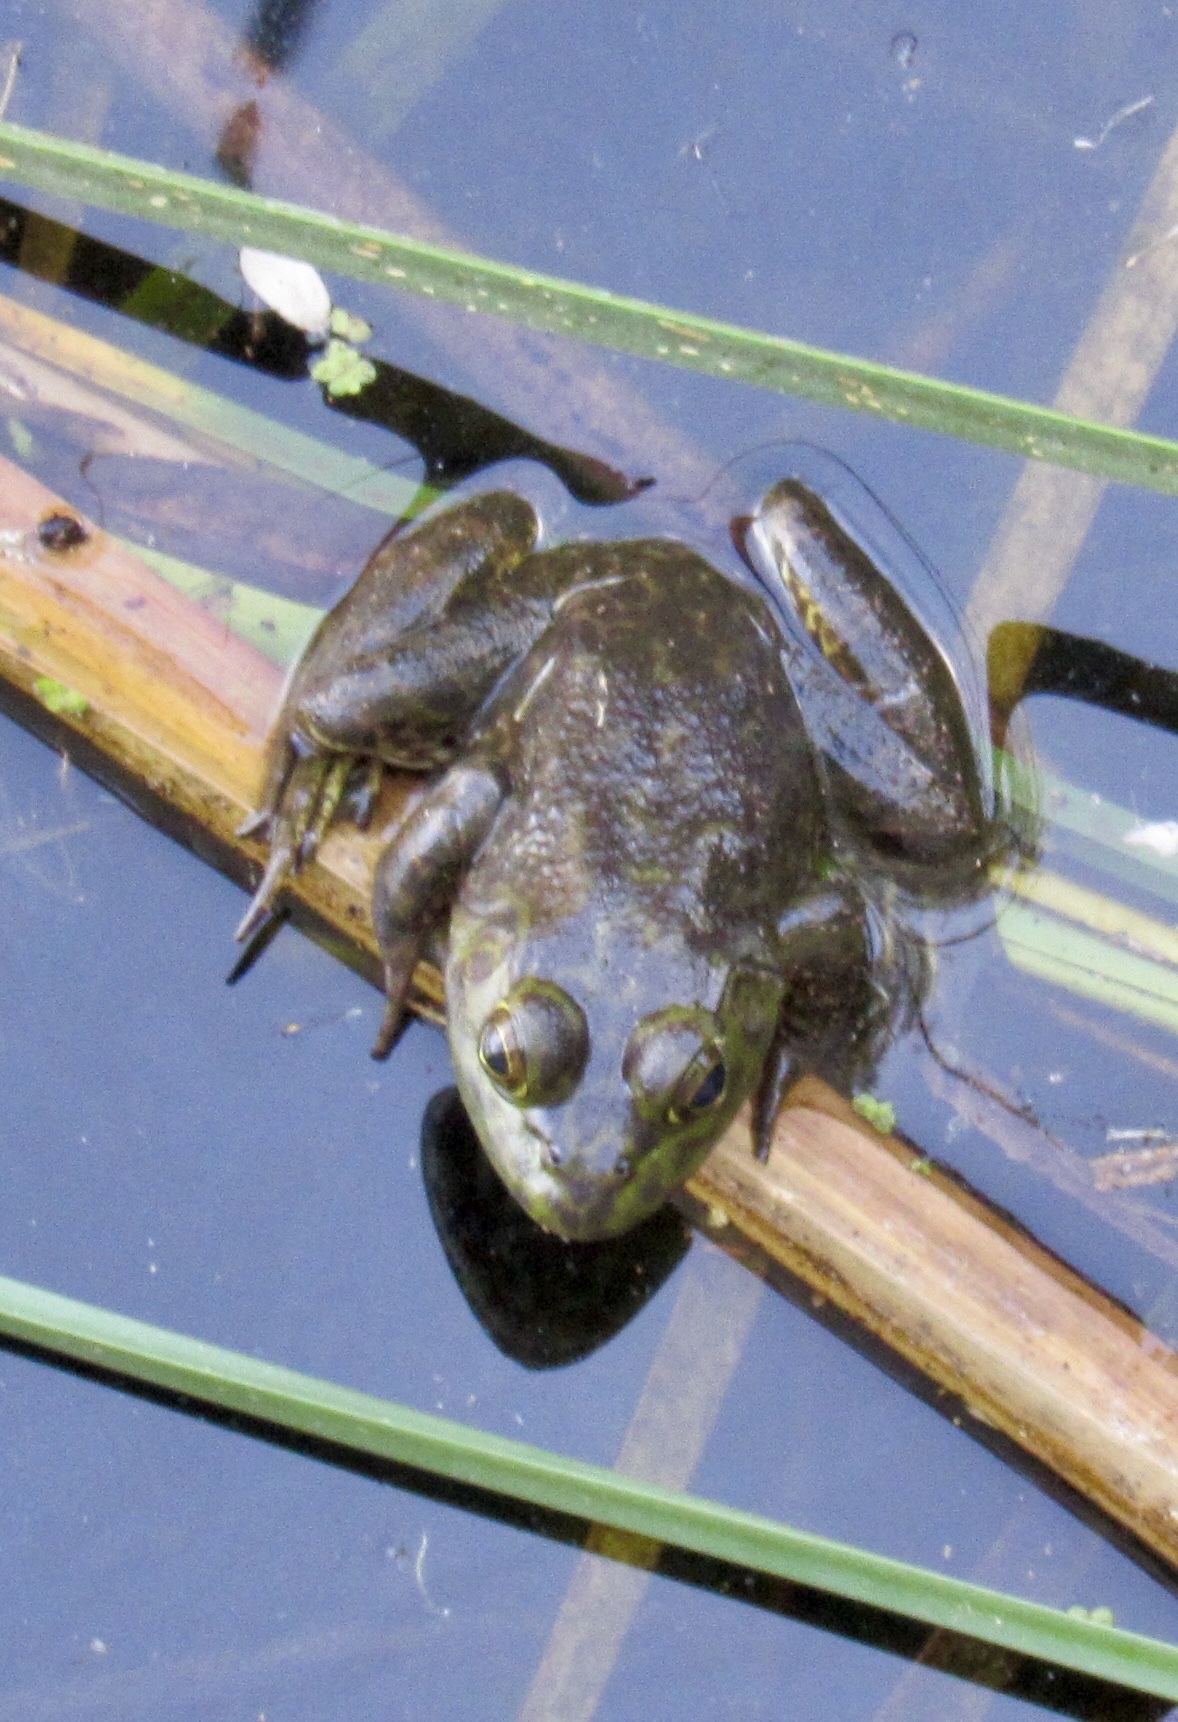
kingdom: Animalia
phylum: Chordata
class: Amphibia
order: Anura
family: Ranidae
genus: Lithobates
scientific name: Lithobates catesbeianus
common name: American bullfrog
